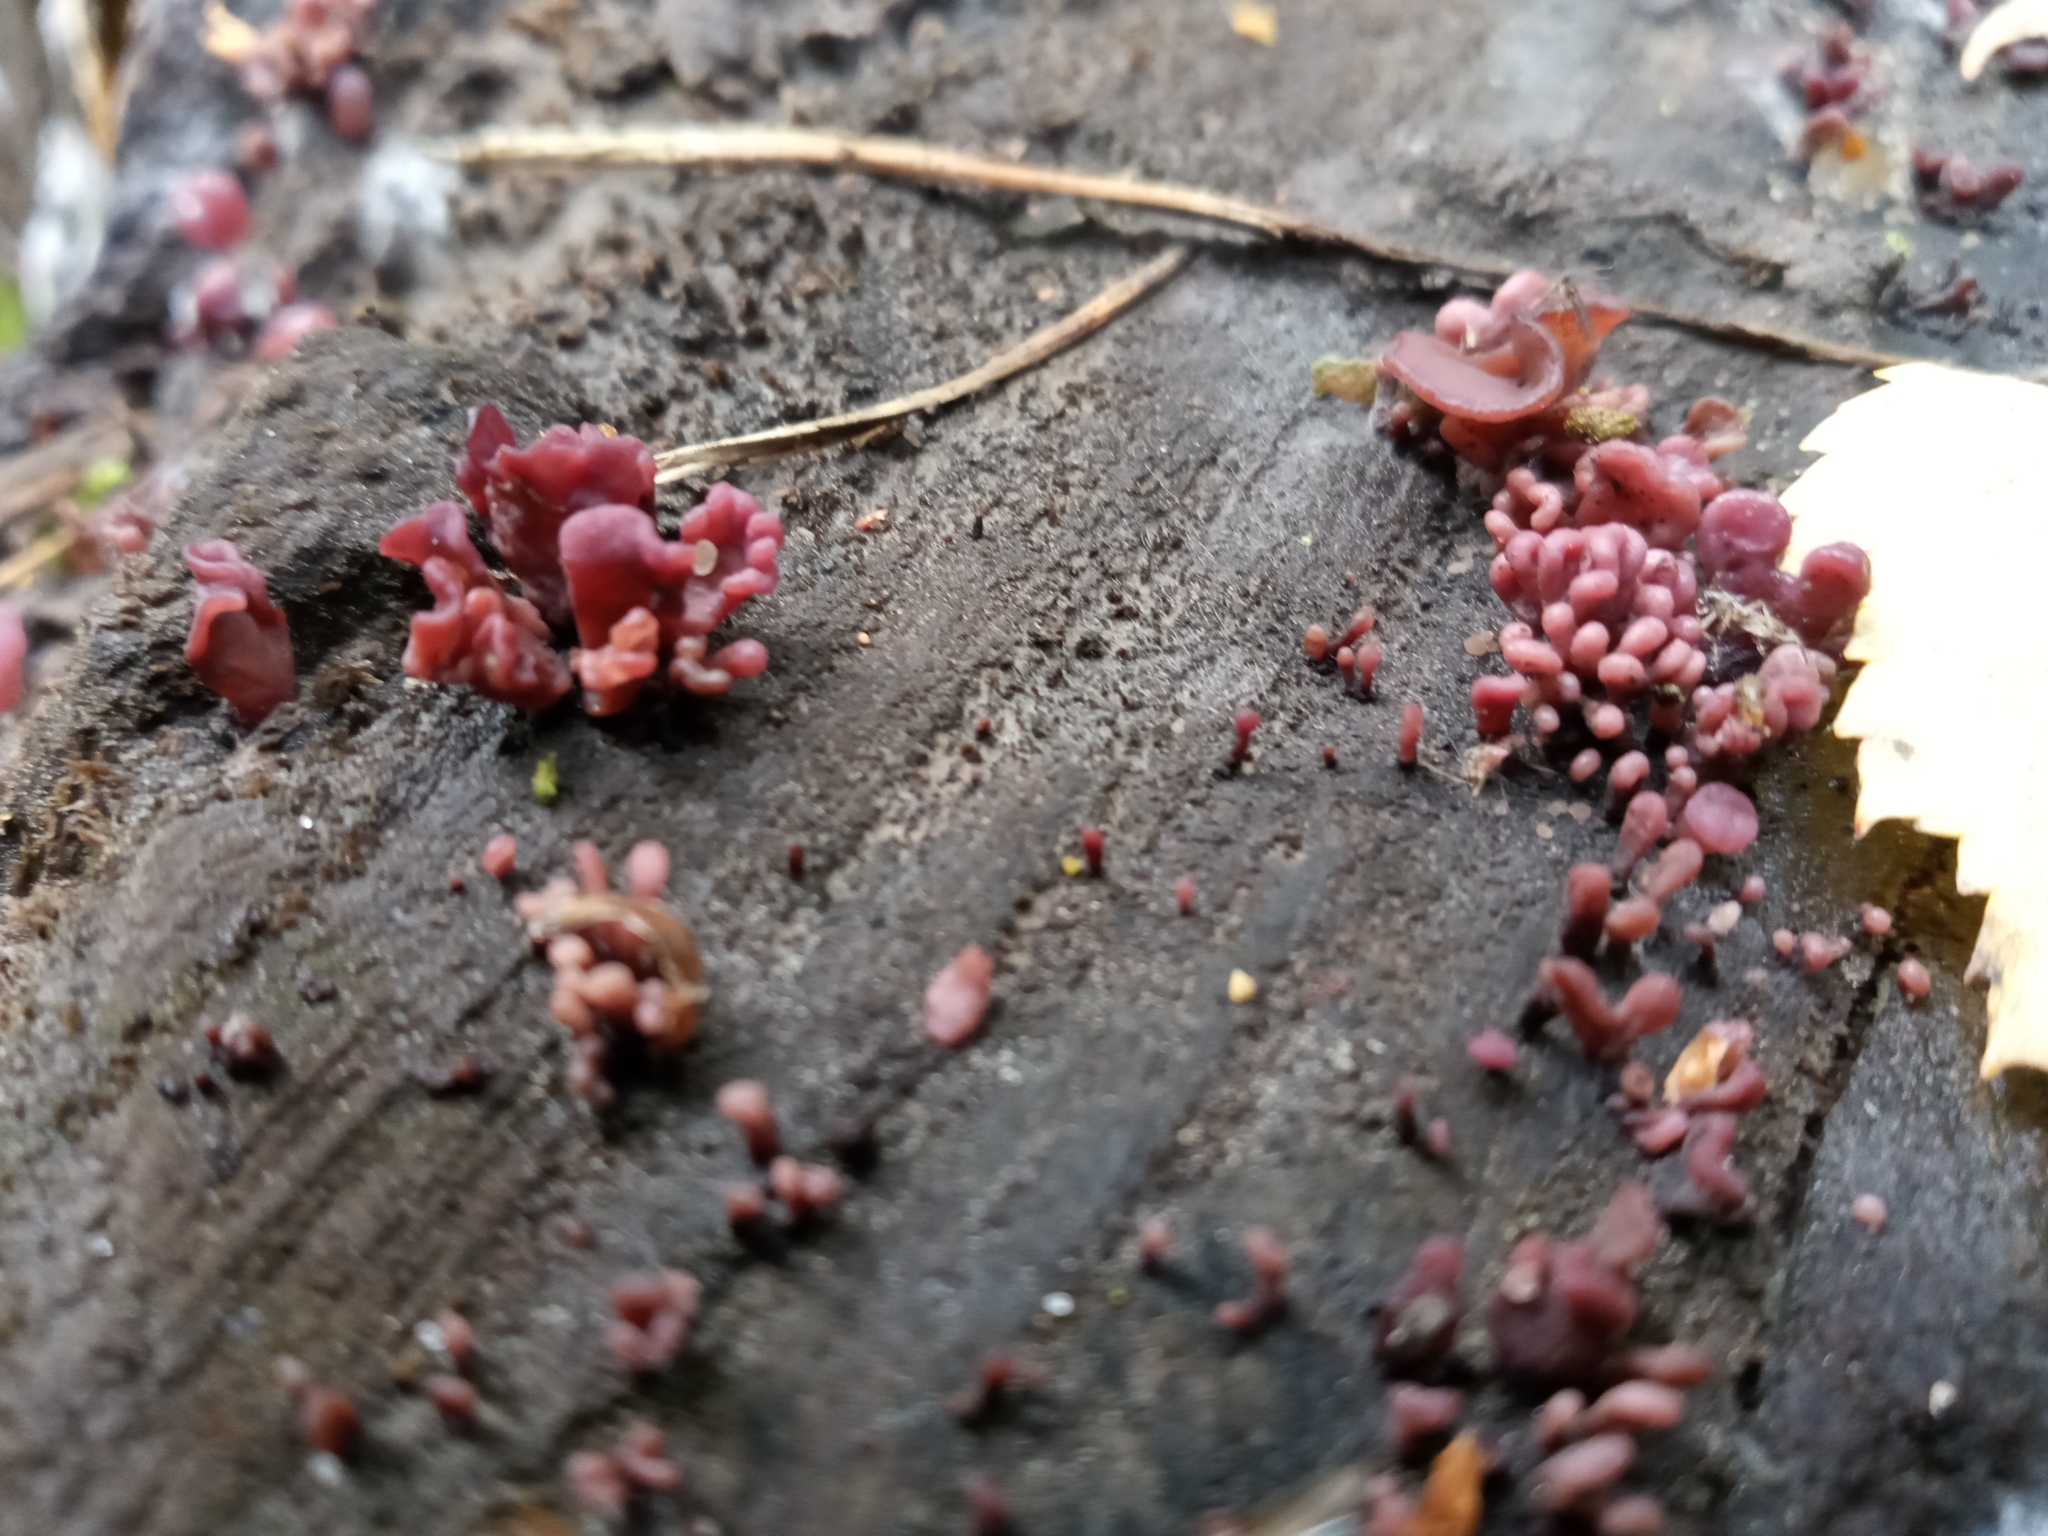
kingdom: Fungi
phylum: Ascomycota
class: Leotiomycetes
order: Helotiales
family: Gelatinodiscaceae
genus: Ascocoryne
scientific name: Ascocoryne sarcoides
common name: Purple jellydisc
